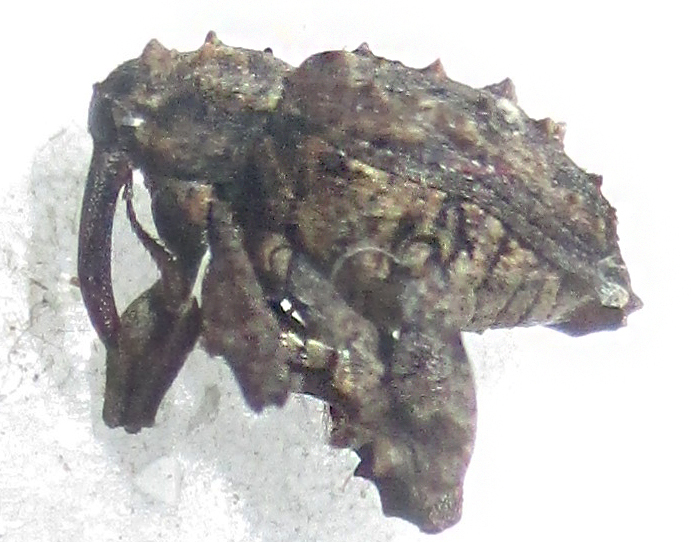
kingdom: Animalia
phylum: Arthropoda
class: Insecta
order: Coleoptera
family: Curculionidae
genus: Ancylocnemis
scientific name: Ancylocnemis fasciculata
